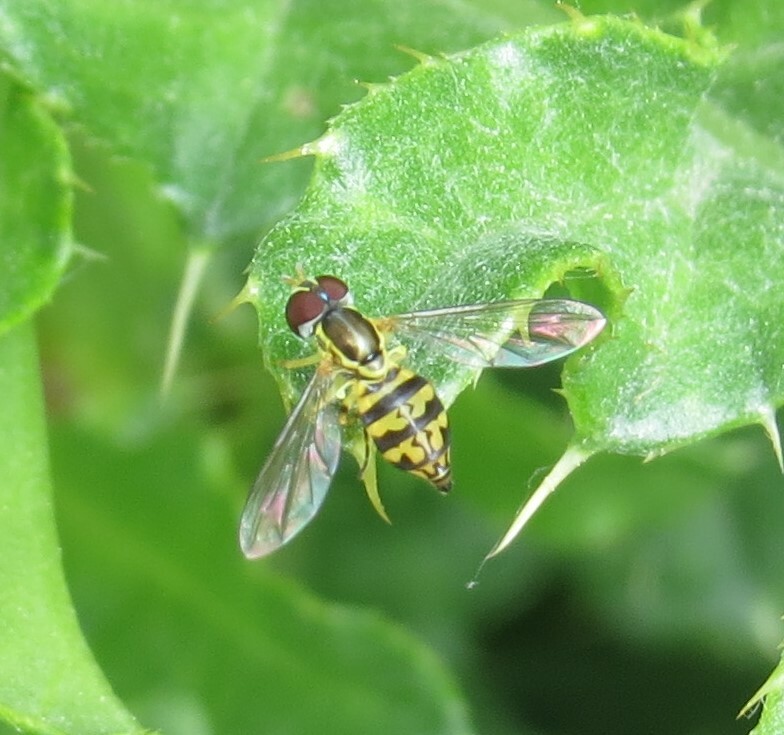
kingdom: Animalia
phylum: Arthropoda
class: Insecta
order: Diptera
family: Syrphidae
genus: Toxomerus
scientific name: Toxomerus geminatus
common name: Eastern calligrapher
